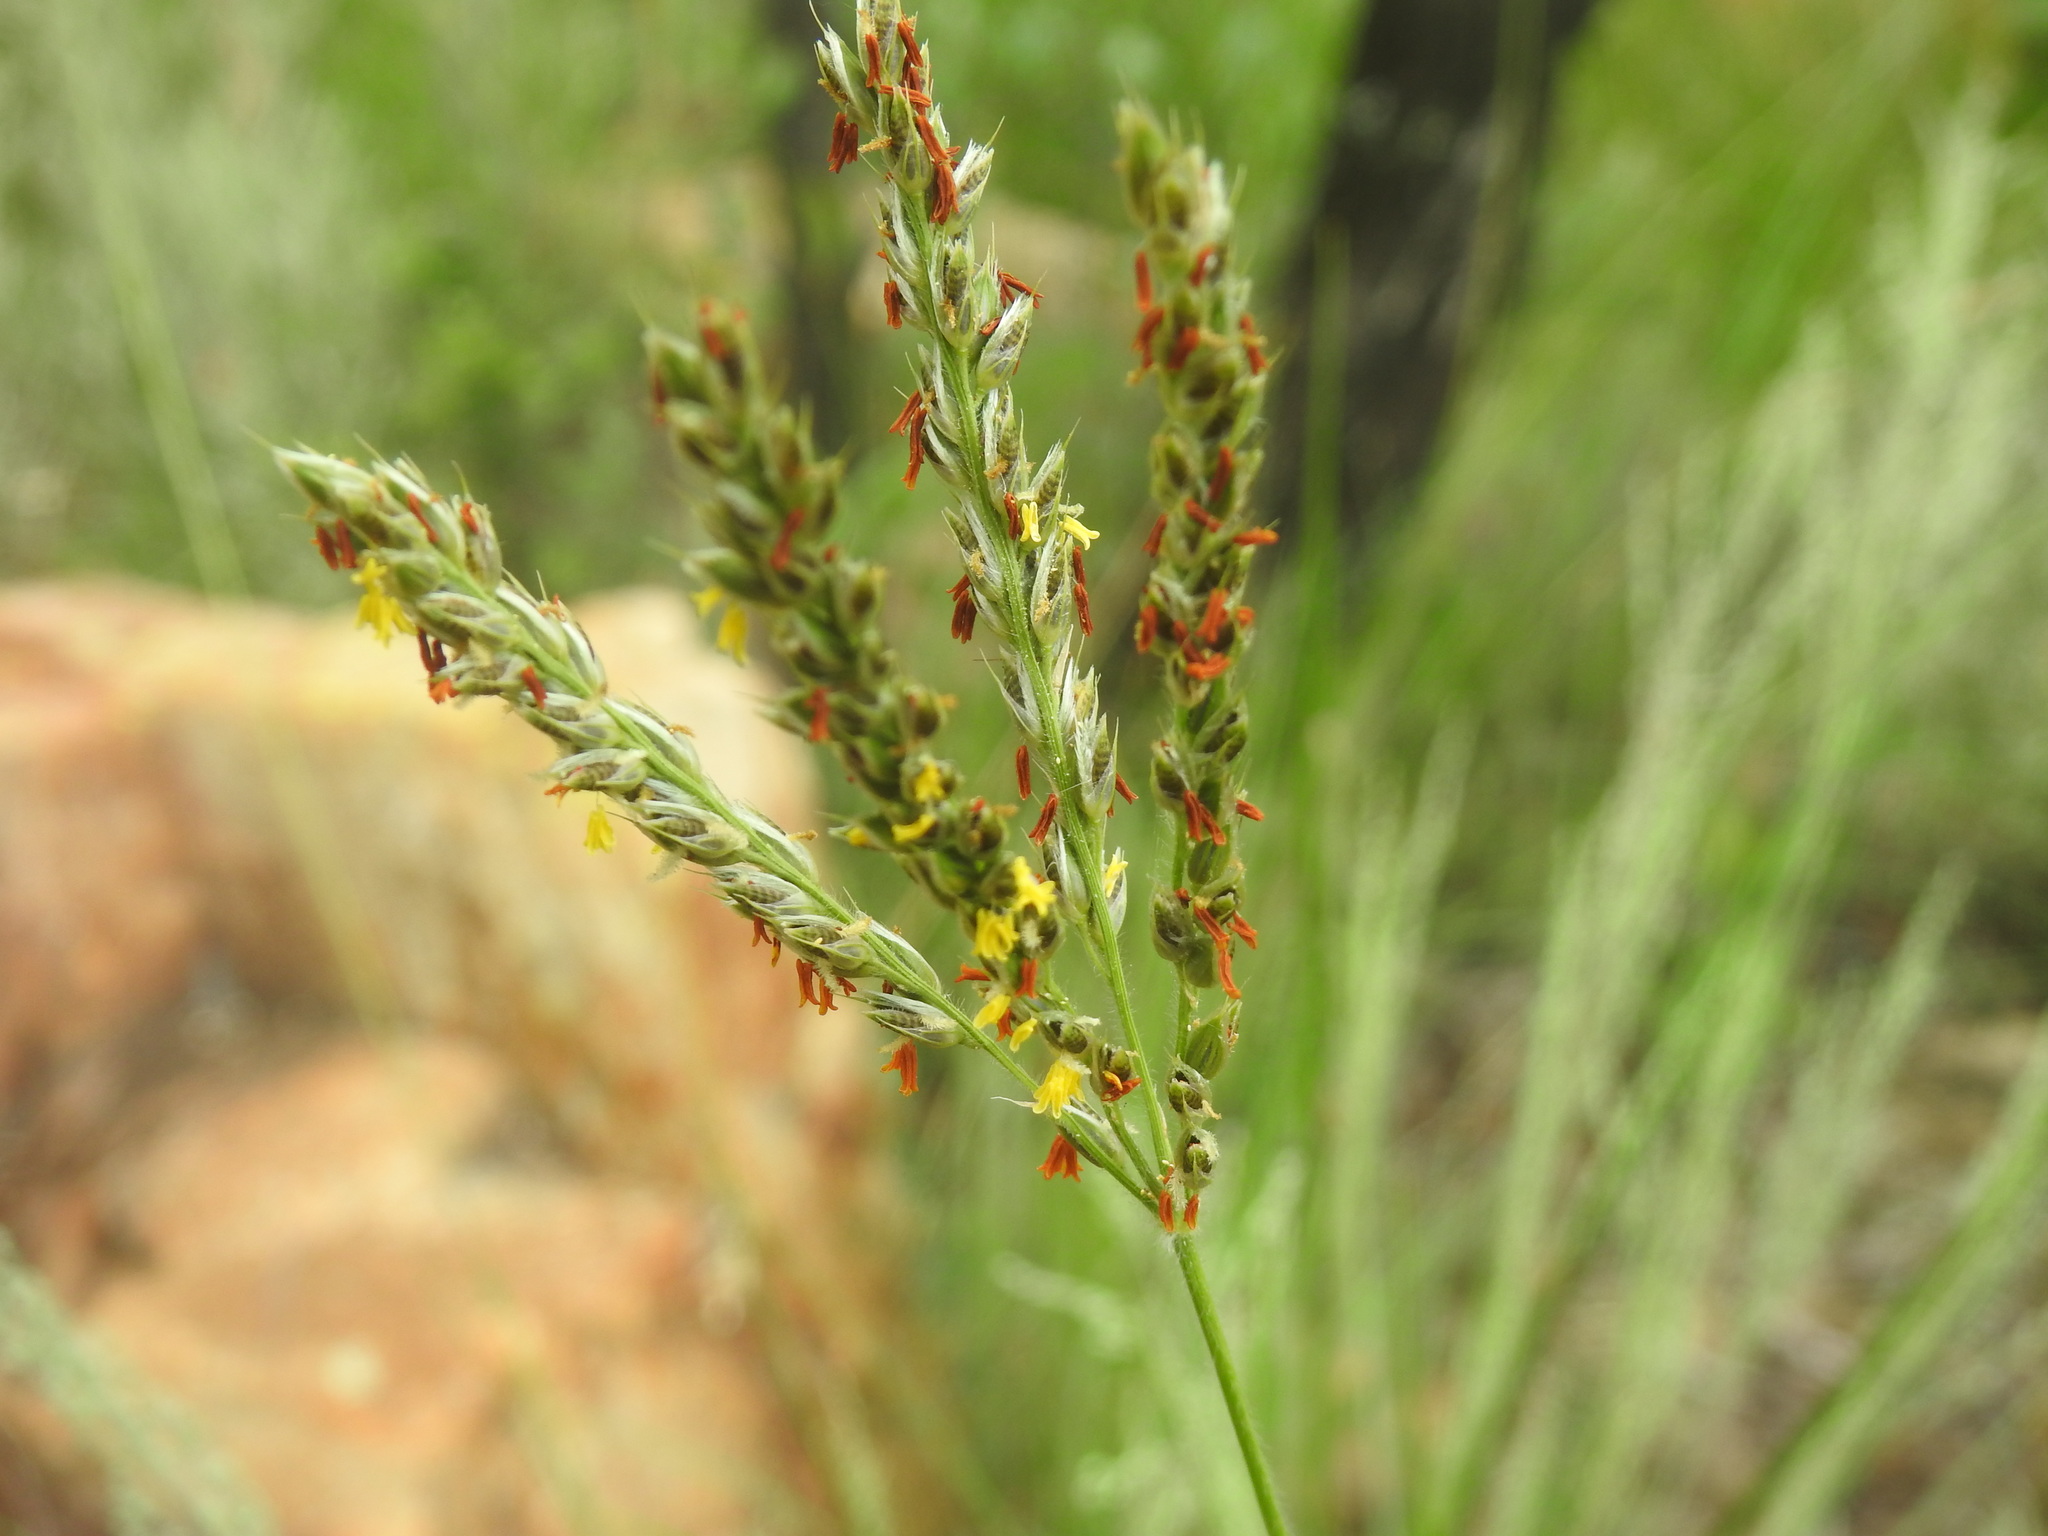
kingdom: Plantae
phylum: Tracheophyta
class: Liliopsida
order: Poales
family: Poaceae
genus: Alloteropsis
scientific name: Alloteropsis semialata
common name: Cockatoo grass
